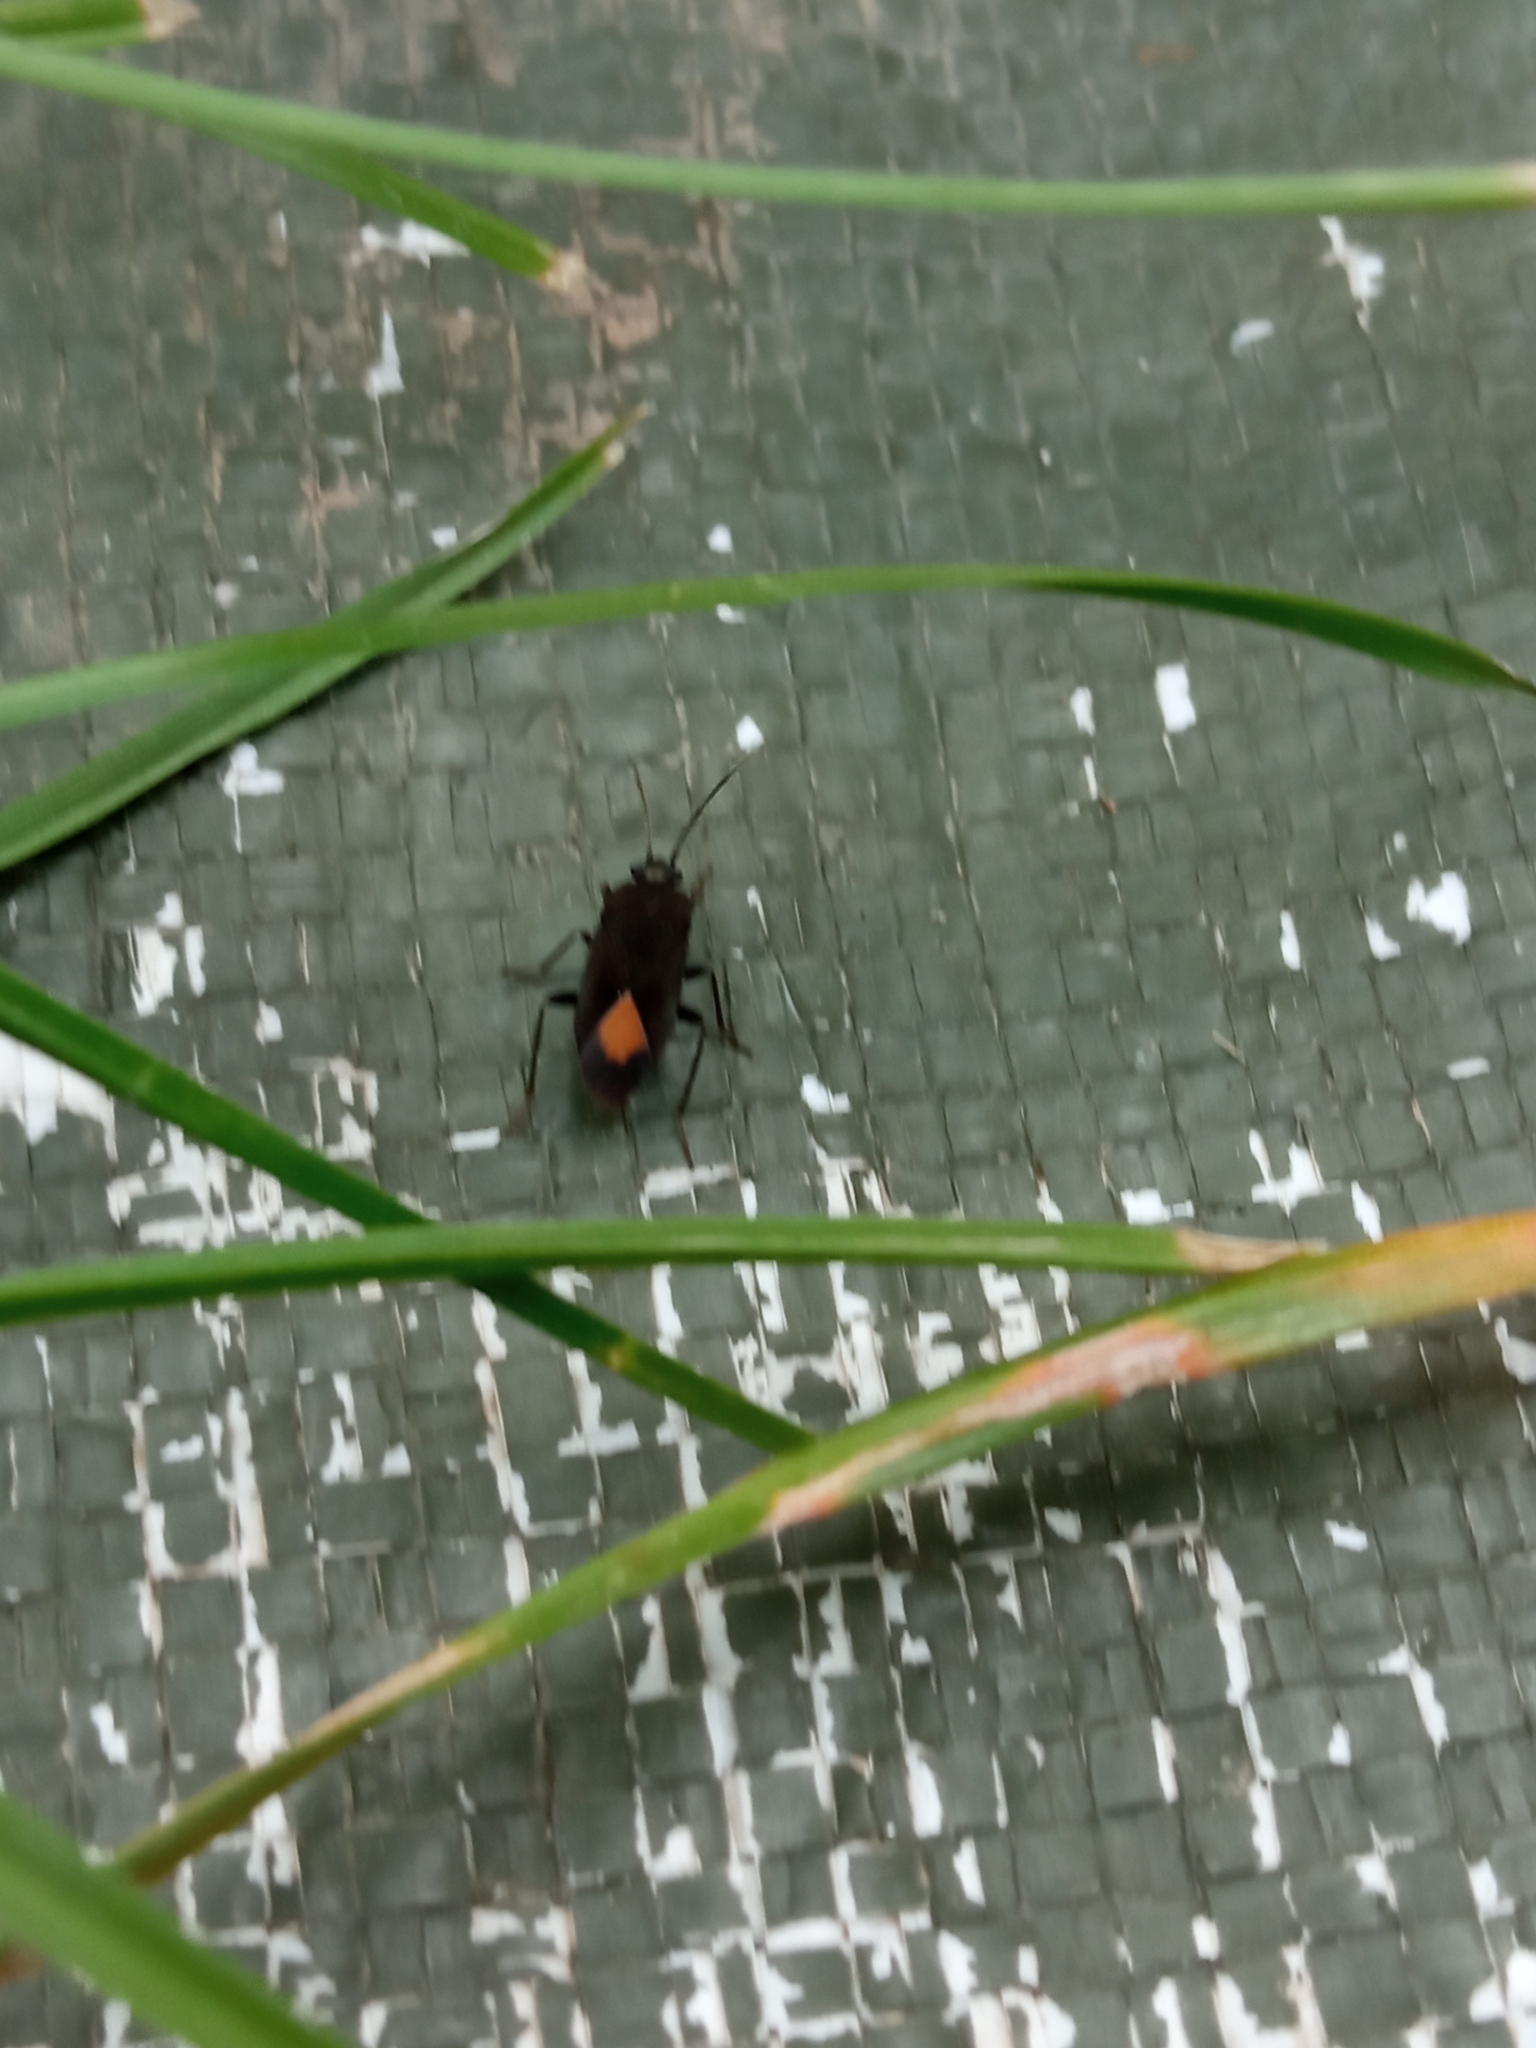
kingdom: Animalia
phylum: Arthropoda
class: Insecta
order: Hemiptera
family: Rhyparochromidae
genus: Aphanus
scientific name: Aphanus rolandri
